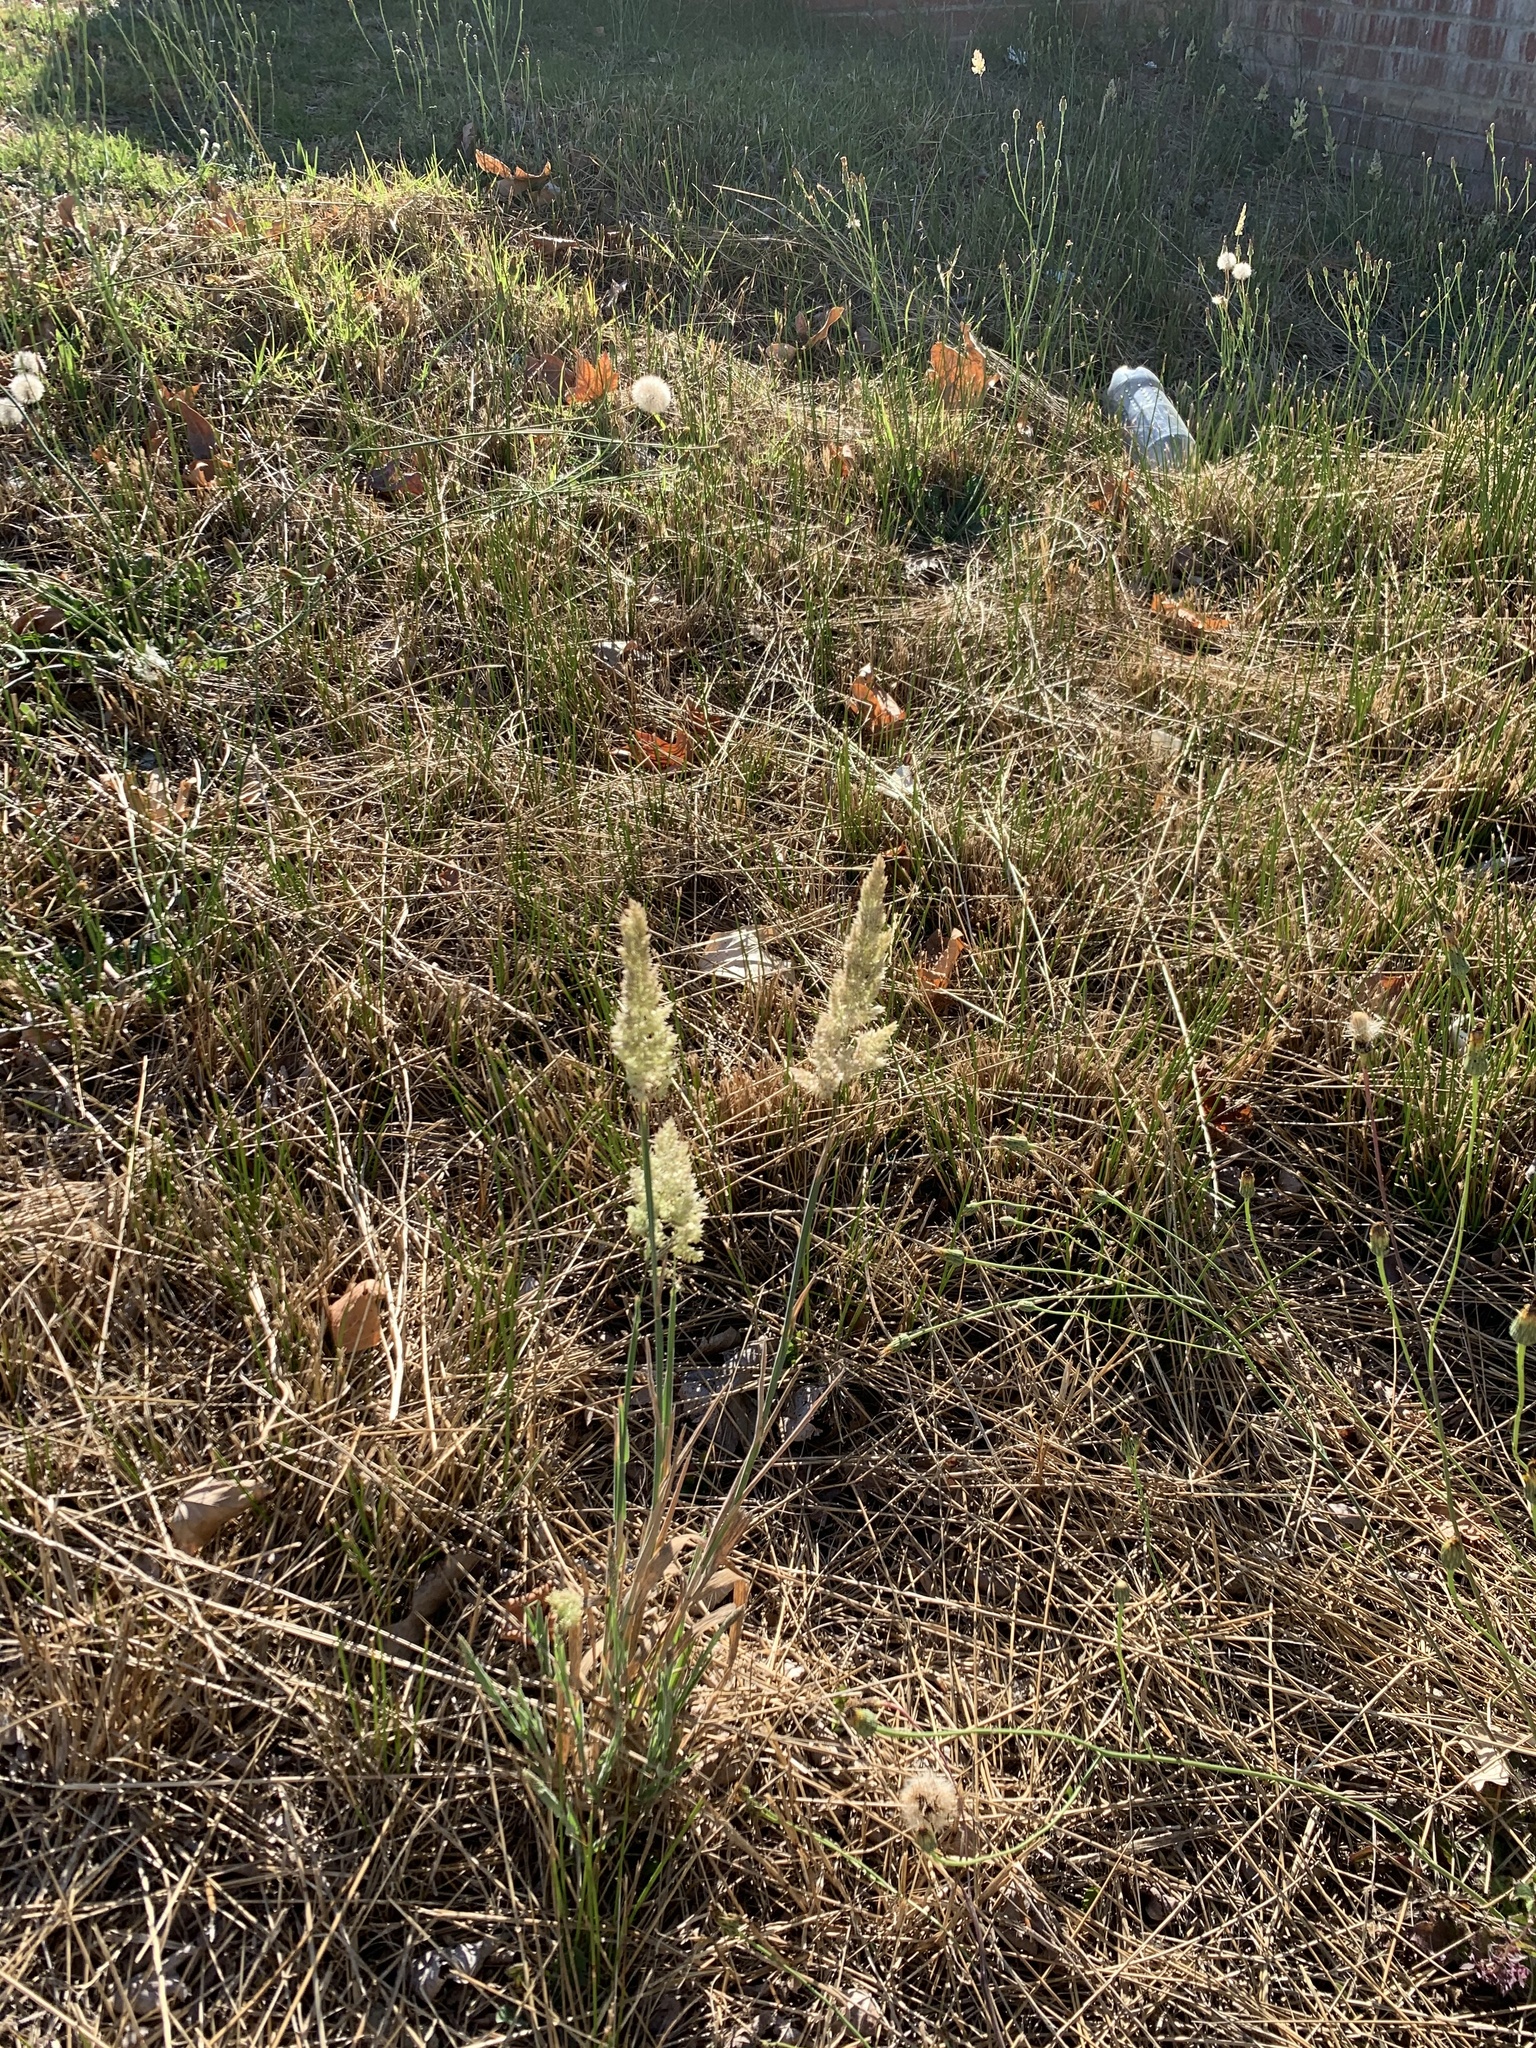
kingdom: Plantae
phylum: Tracheophyta
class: Liliopsida
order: Poales
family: Poaceae
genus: Holcus
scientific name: Holcus lanatus
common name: Yorkshire-fog
